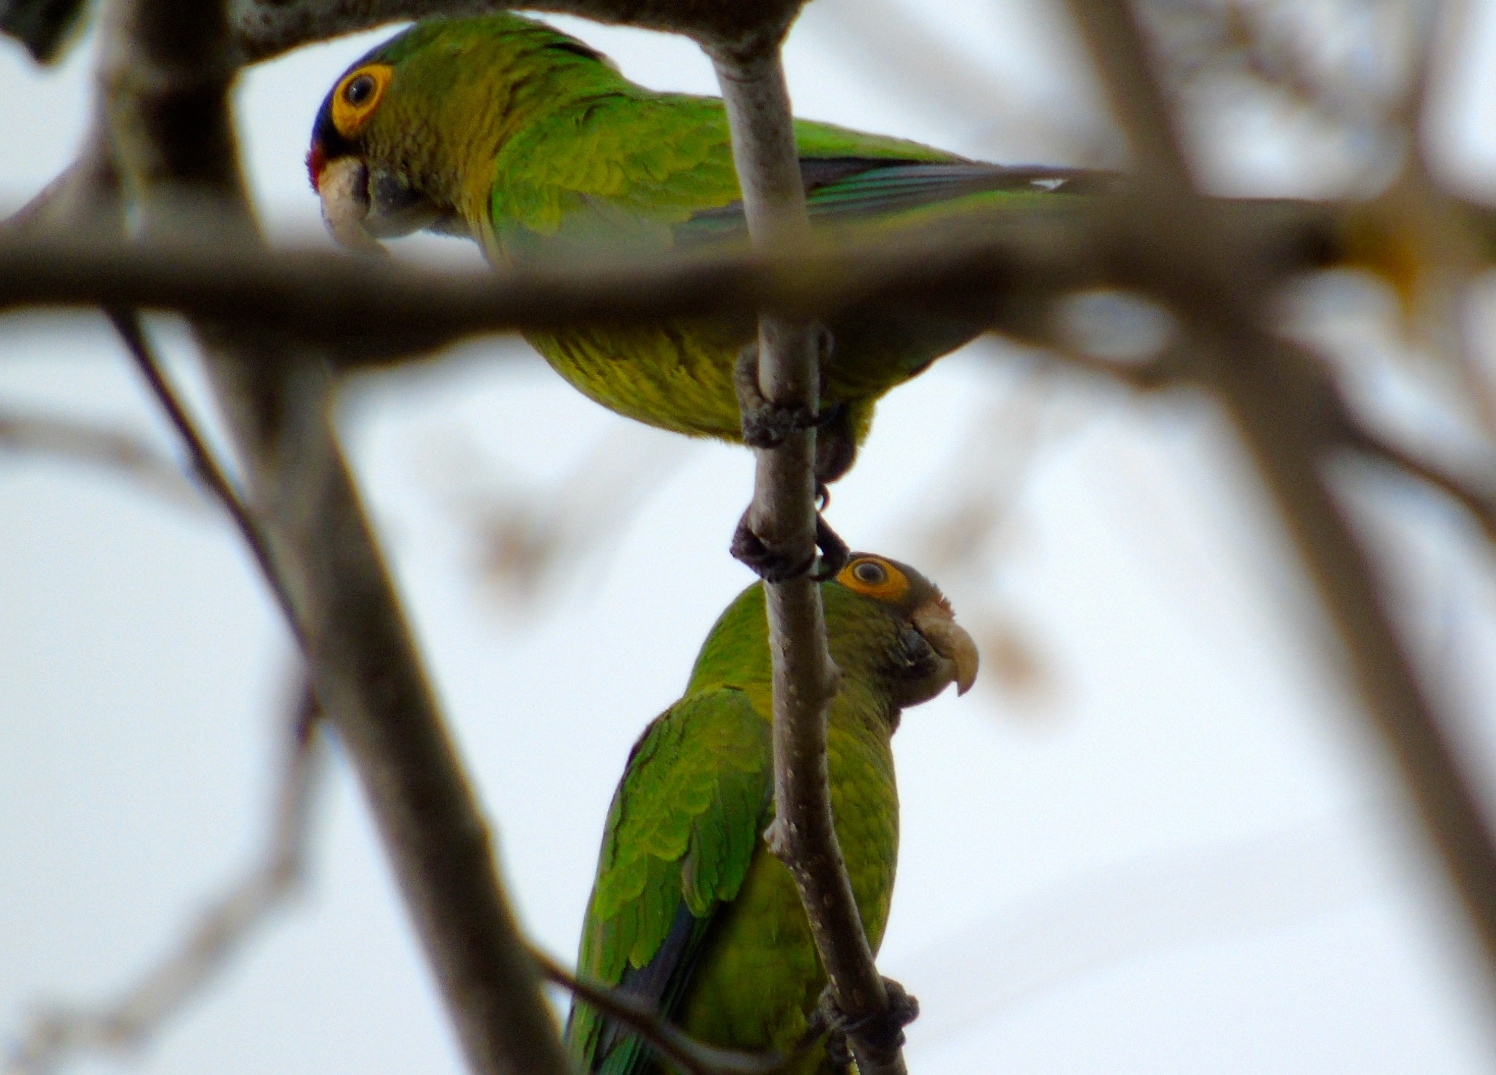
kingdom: Animalia
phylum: Chordata
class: Aves
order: Psittaciformes
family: Psittacidae
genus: Aratinga
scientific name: Aratinga canicularis
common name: Orange-fronted parakeet
